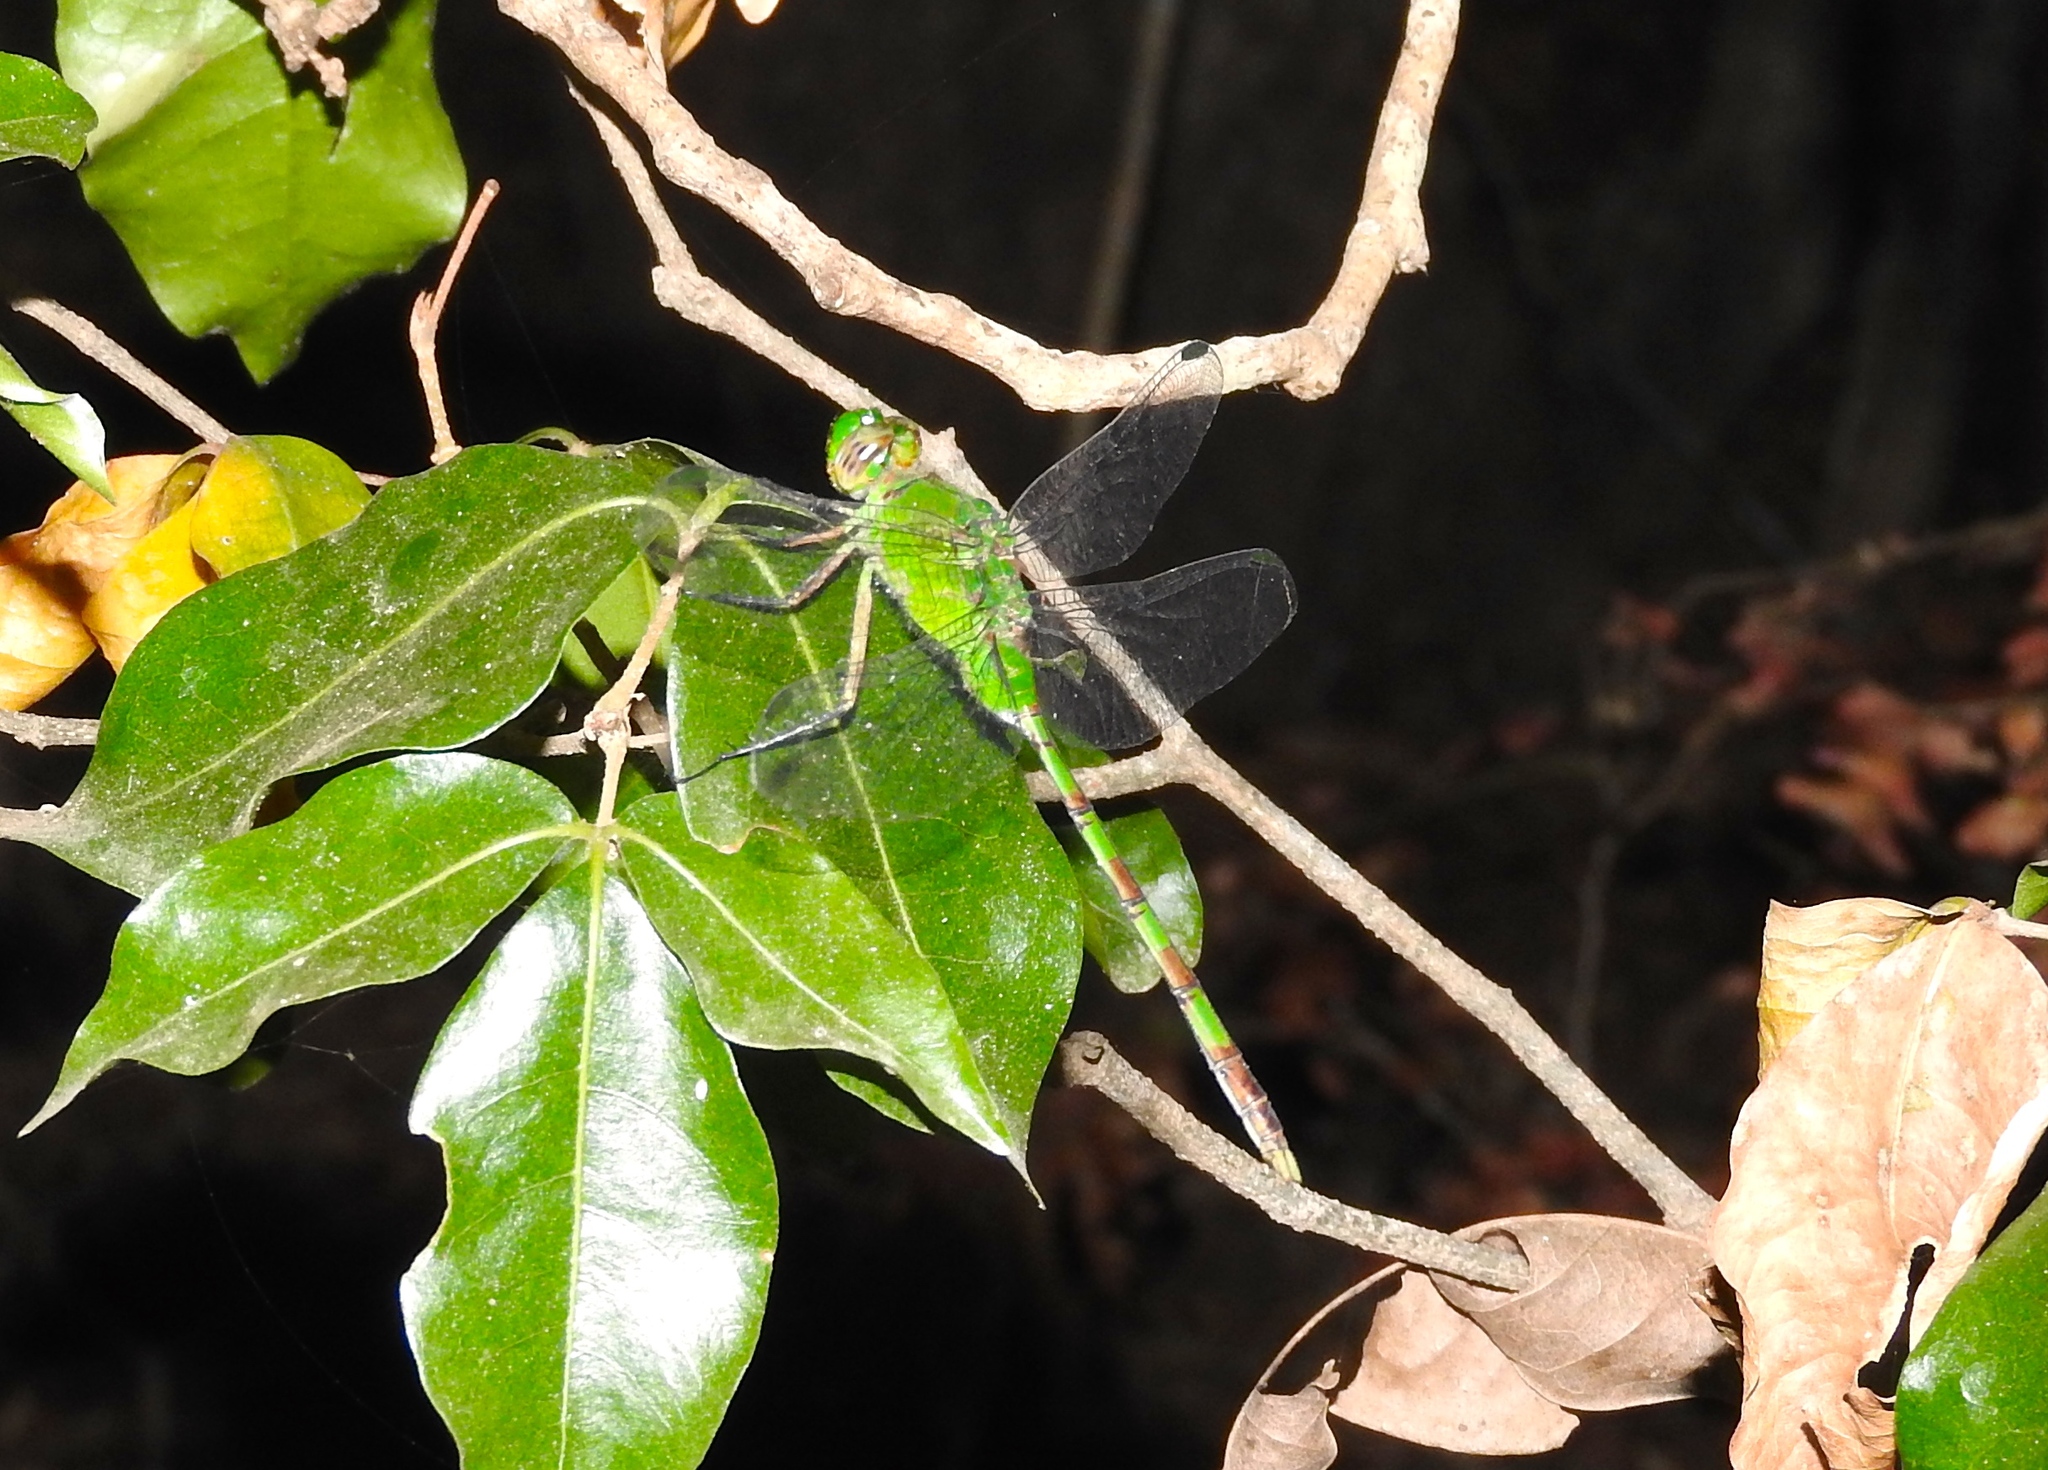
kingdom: Animalia
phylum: Arthropoda
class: Insecta
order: Odonata
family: Libellulidae
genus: Erythemis
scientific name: Erythemis vesiculosa
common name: Great pondhawk
